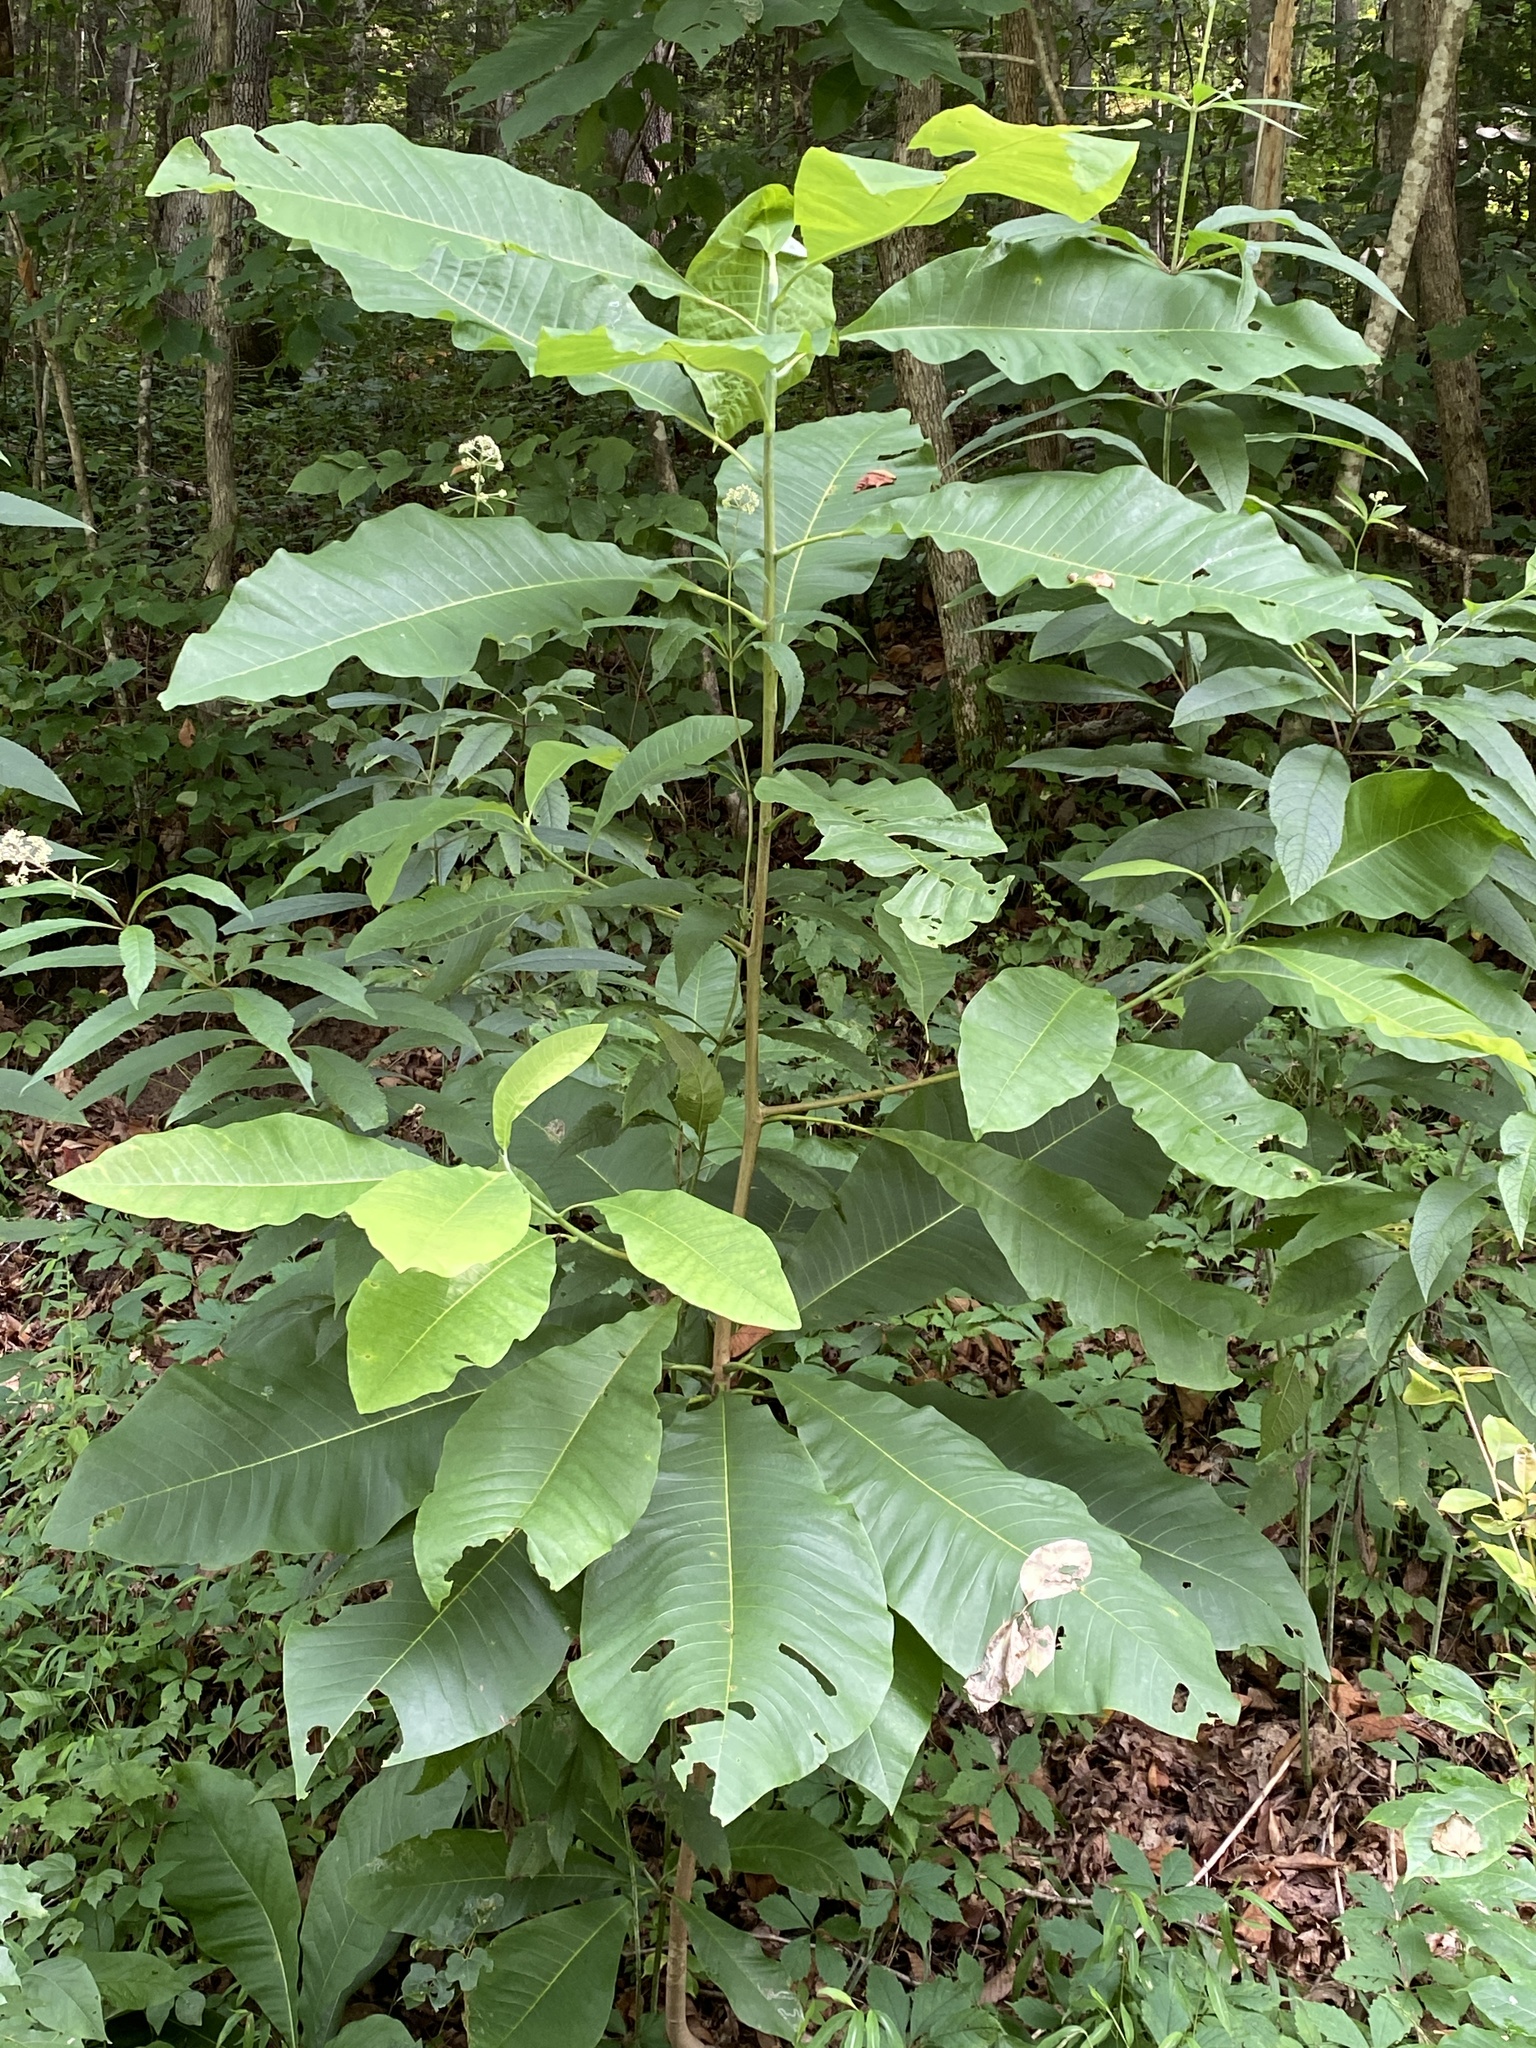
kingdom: Plantae
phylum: Tracheophyta
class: Magnoliopsida
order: Magnoliales
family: Magnoliaceae
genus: Magnolia
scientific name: Magnolia tripetala
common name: Umbrella magnolia
